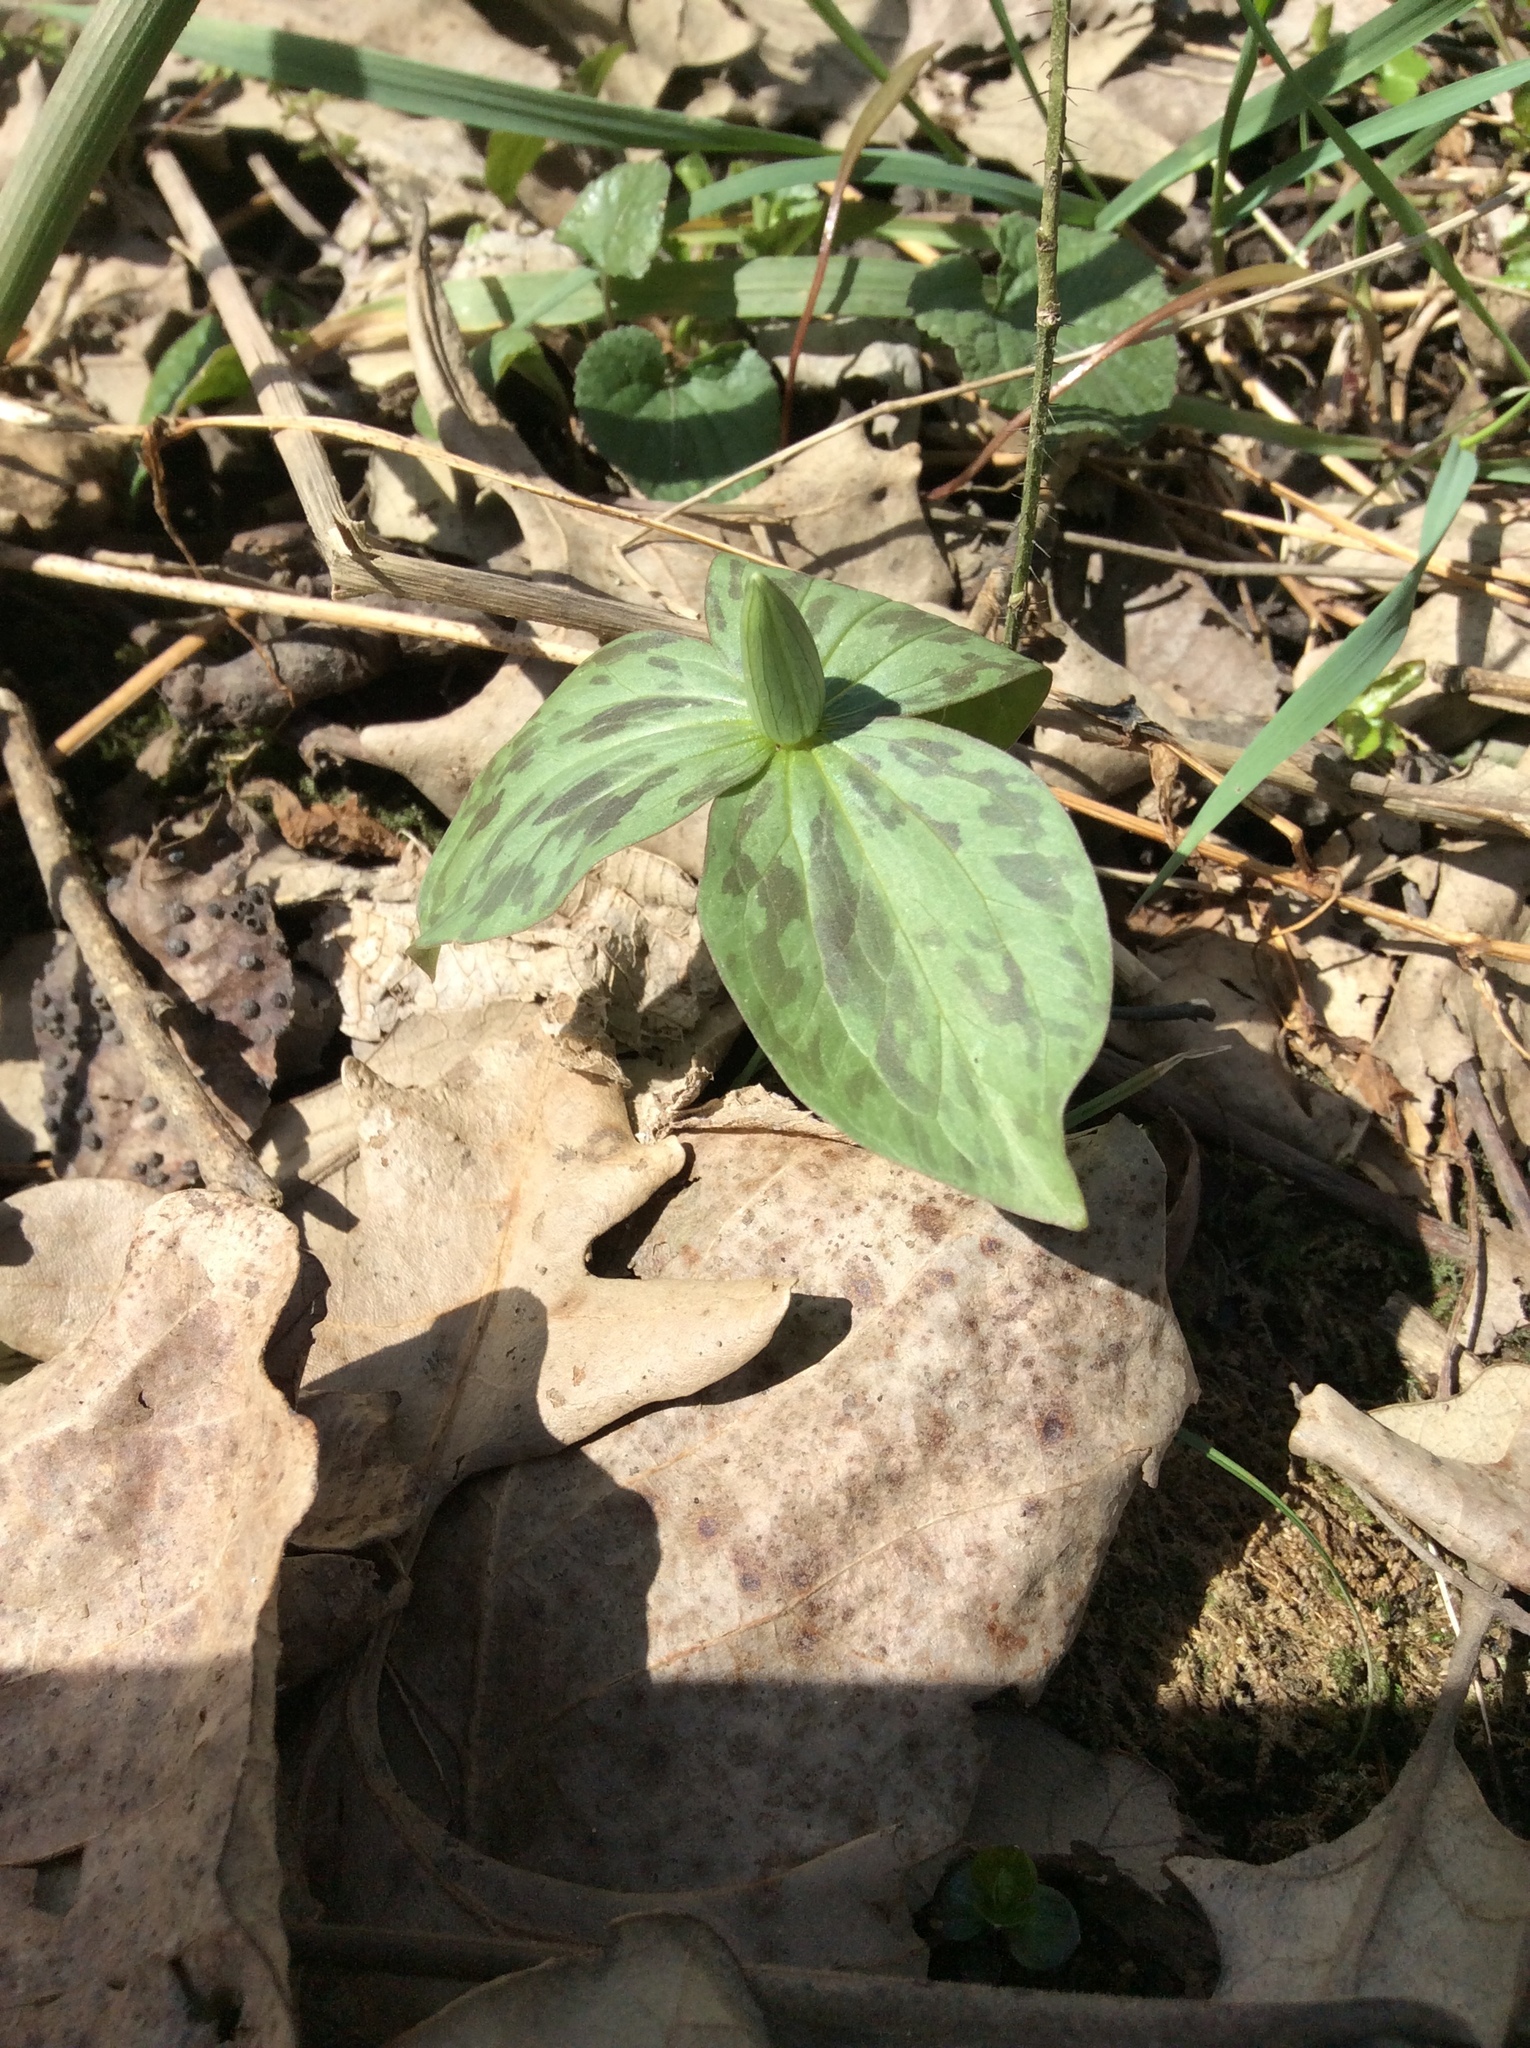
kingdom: Plantae
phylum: Tracheophyta
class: Liliopsida
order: Liliales
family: Melanthiaceae
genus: Trillium
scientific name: Trillium sessile
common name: Sessile trillium
